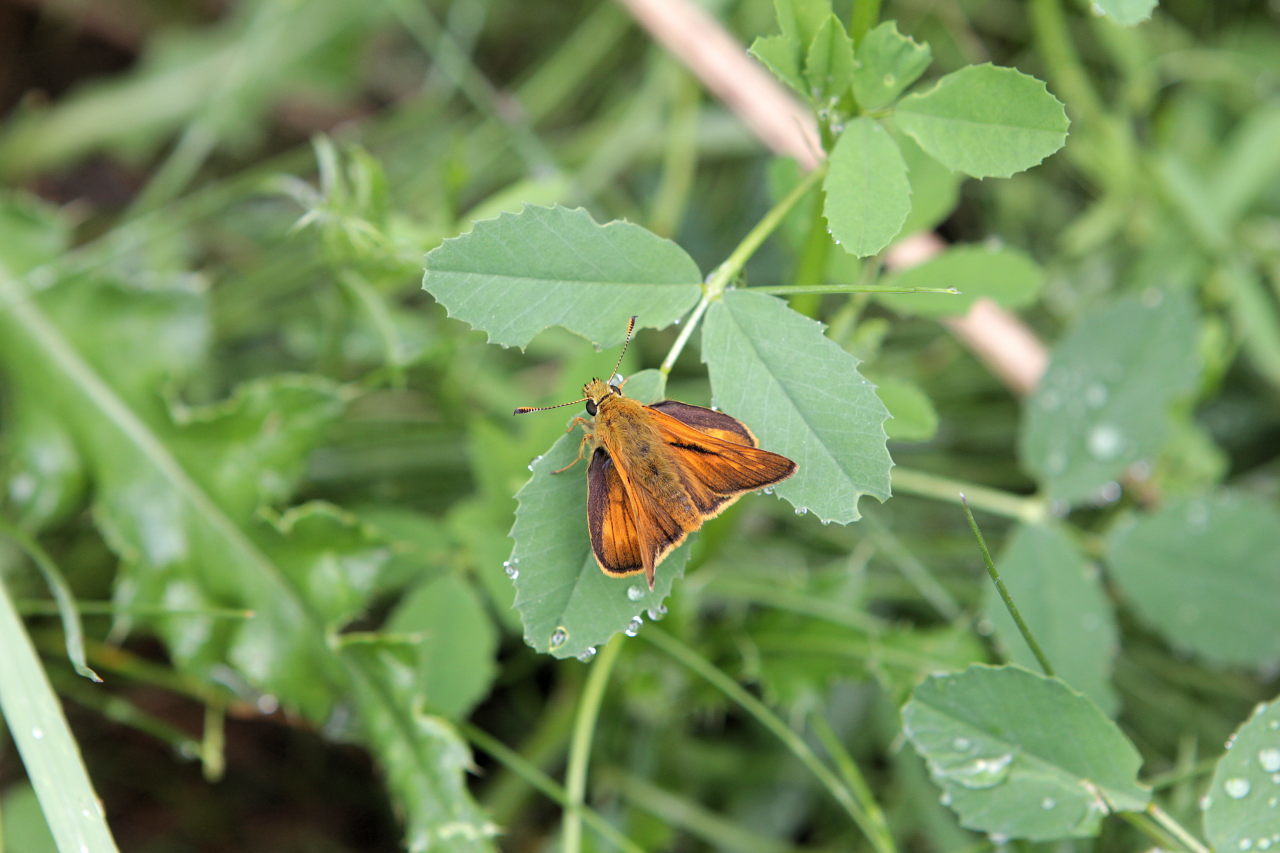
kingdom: Animalia
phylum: Arthropoda
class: Insecta
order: Lepidoptera
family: Hesperiidae
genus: Ochlodes
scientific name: Ochlodes venata
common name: Large skipper
